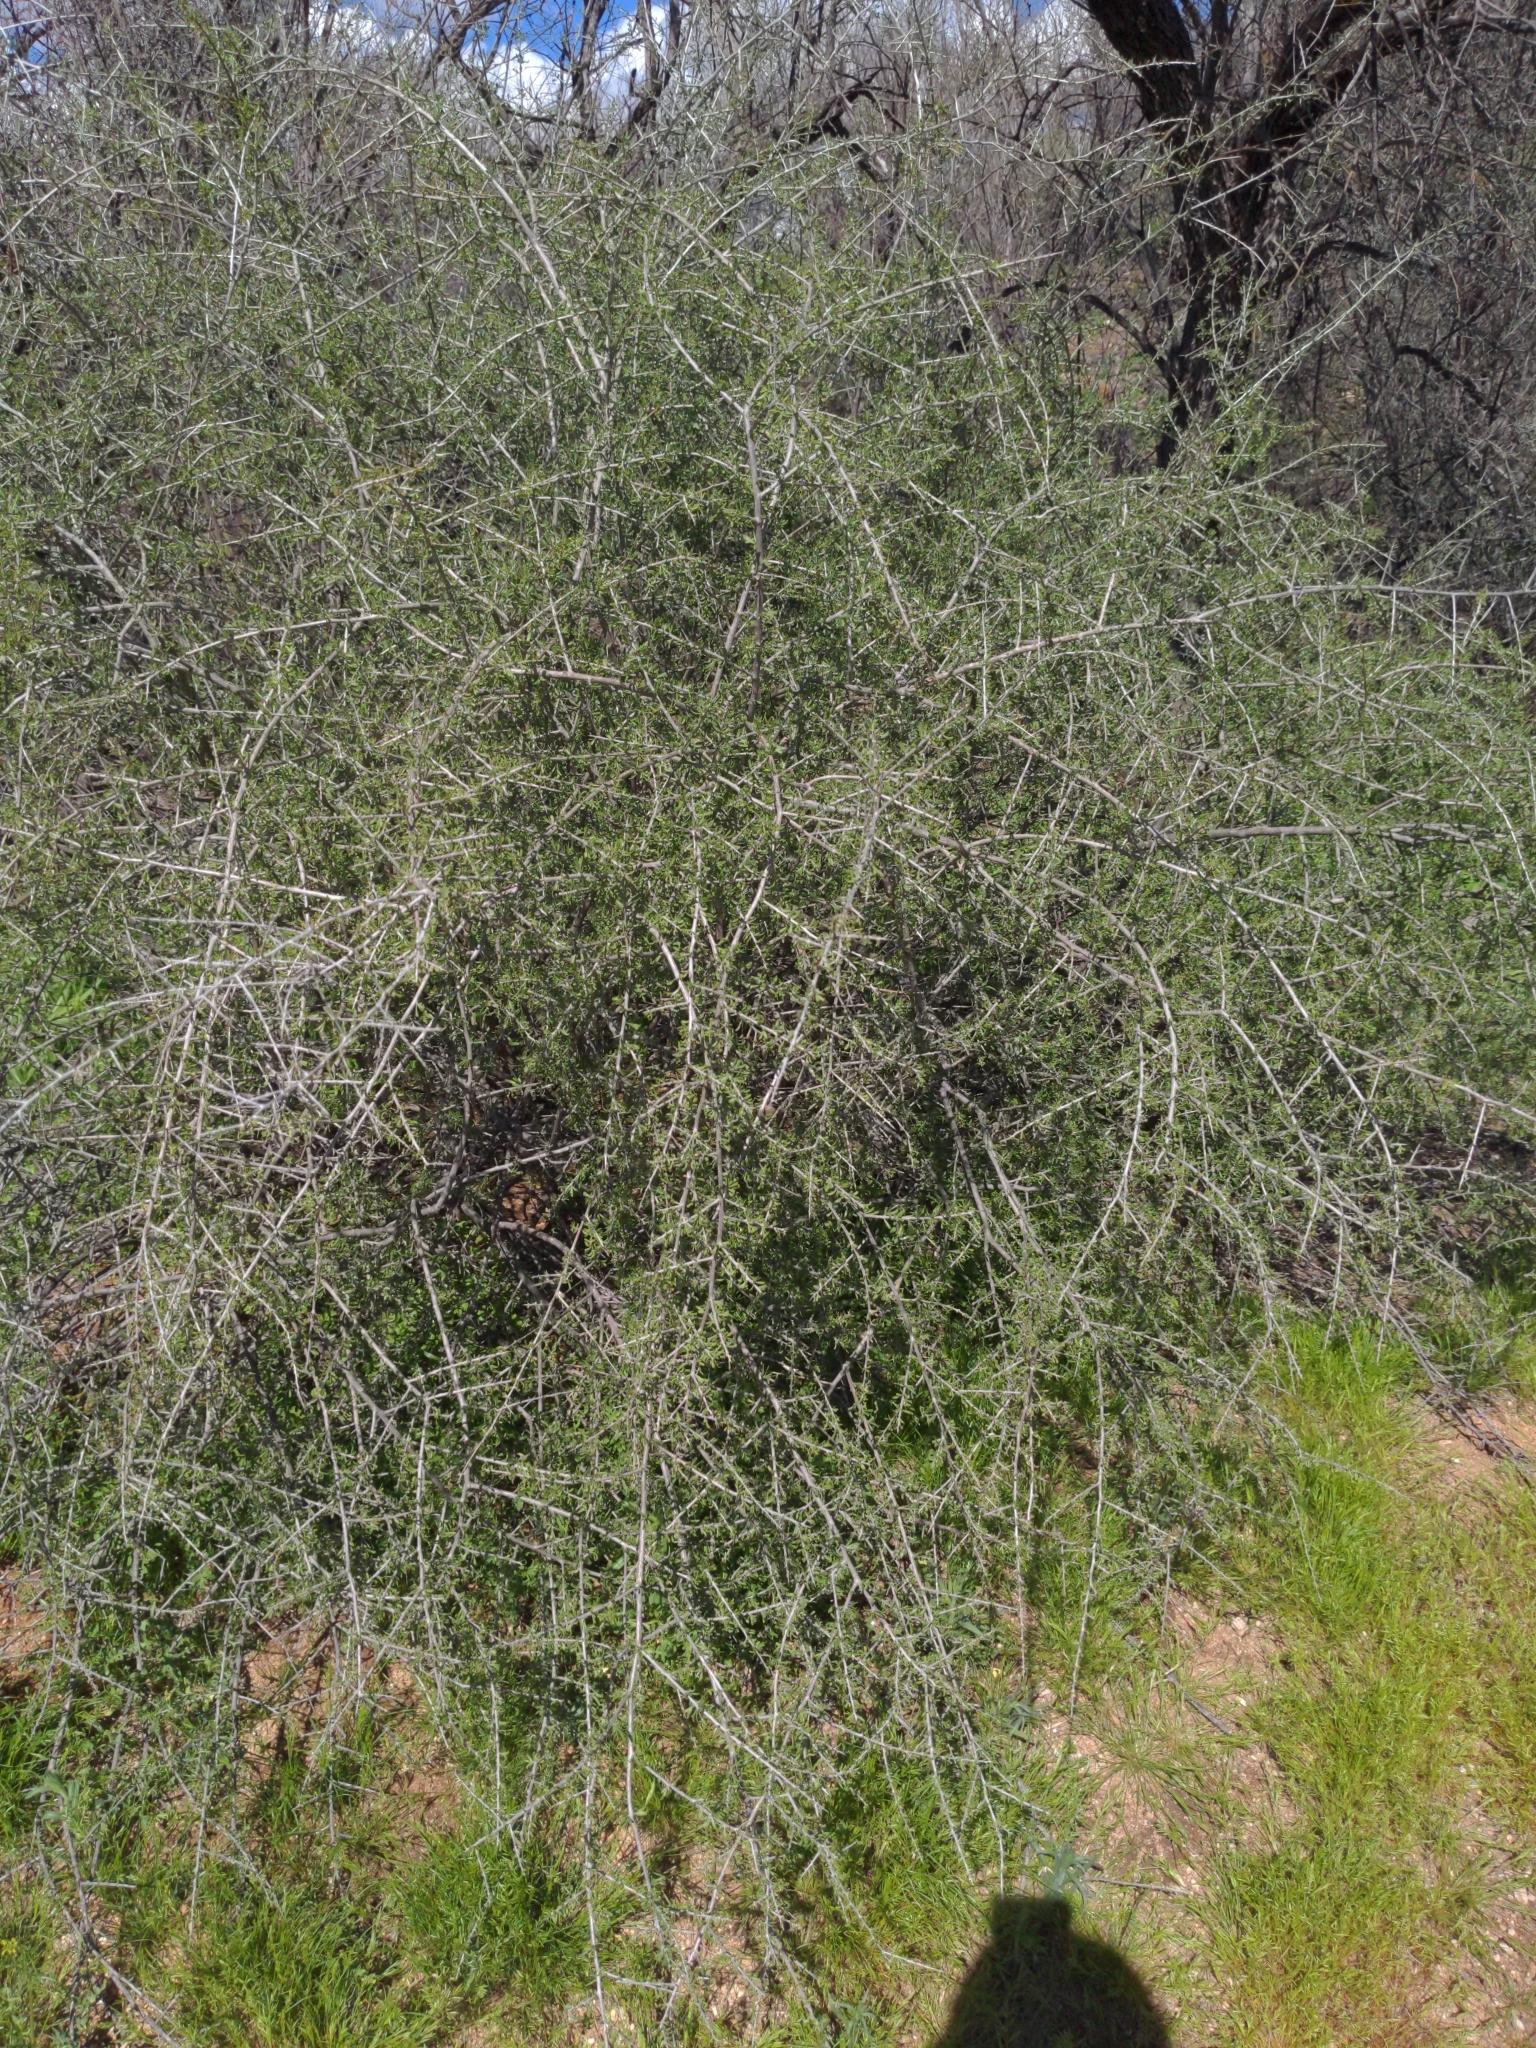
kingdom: Plantae
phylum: Tracheophyta
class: Magnoliopsida
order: Rosales
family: Rhamnaceae
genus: Condalia
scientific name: Condalia warnockii
